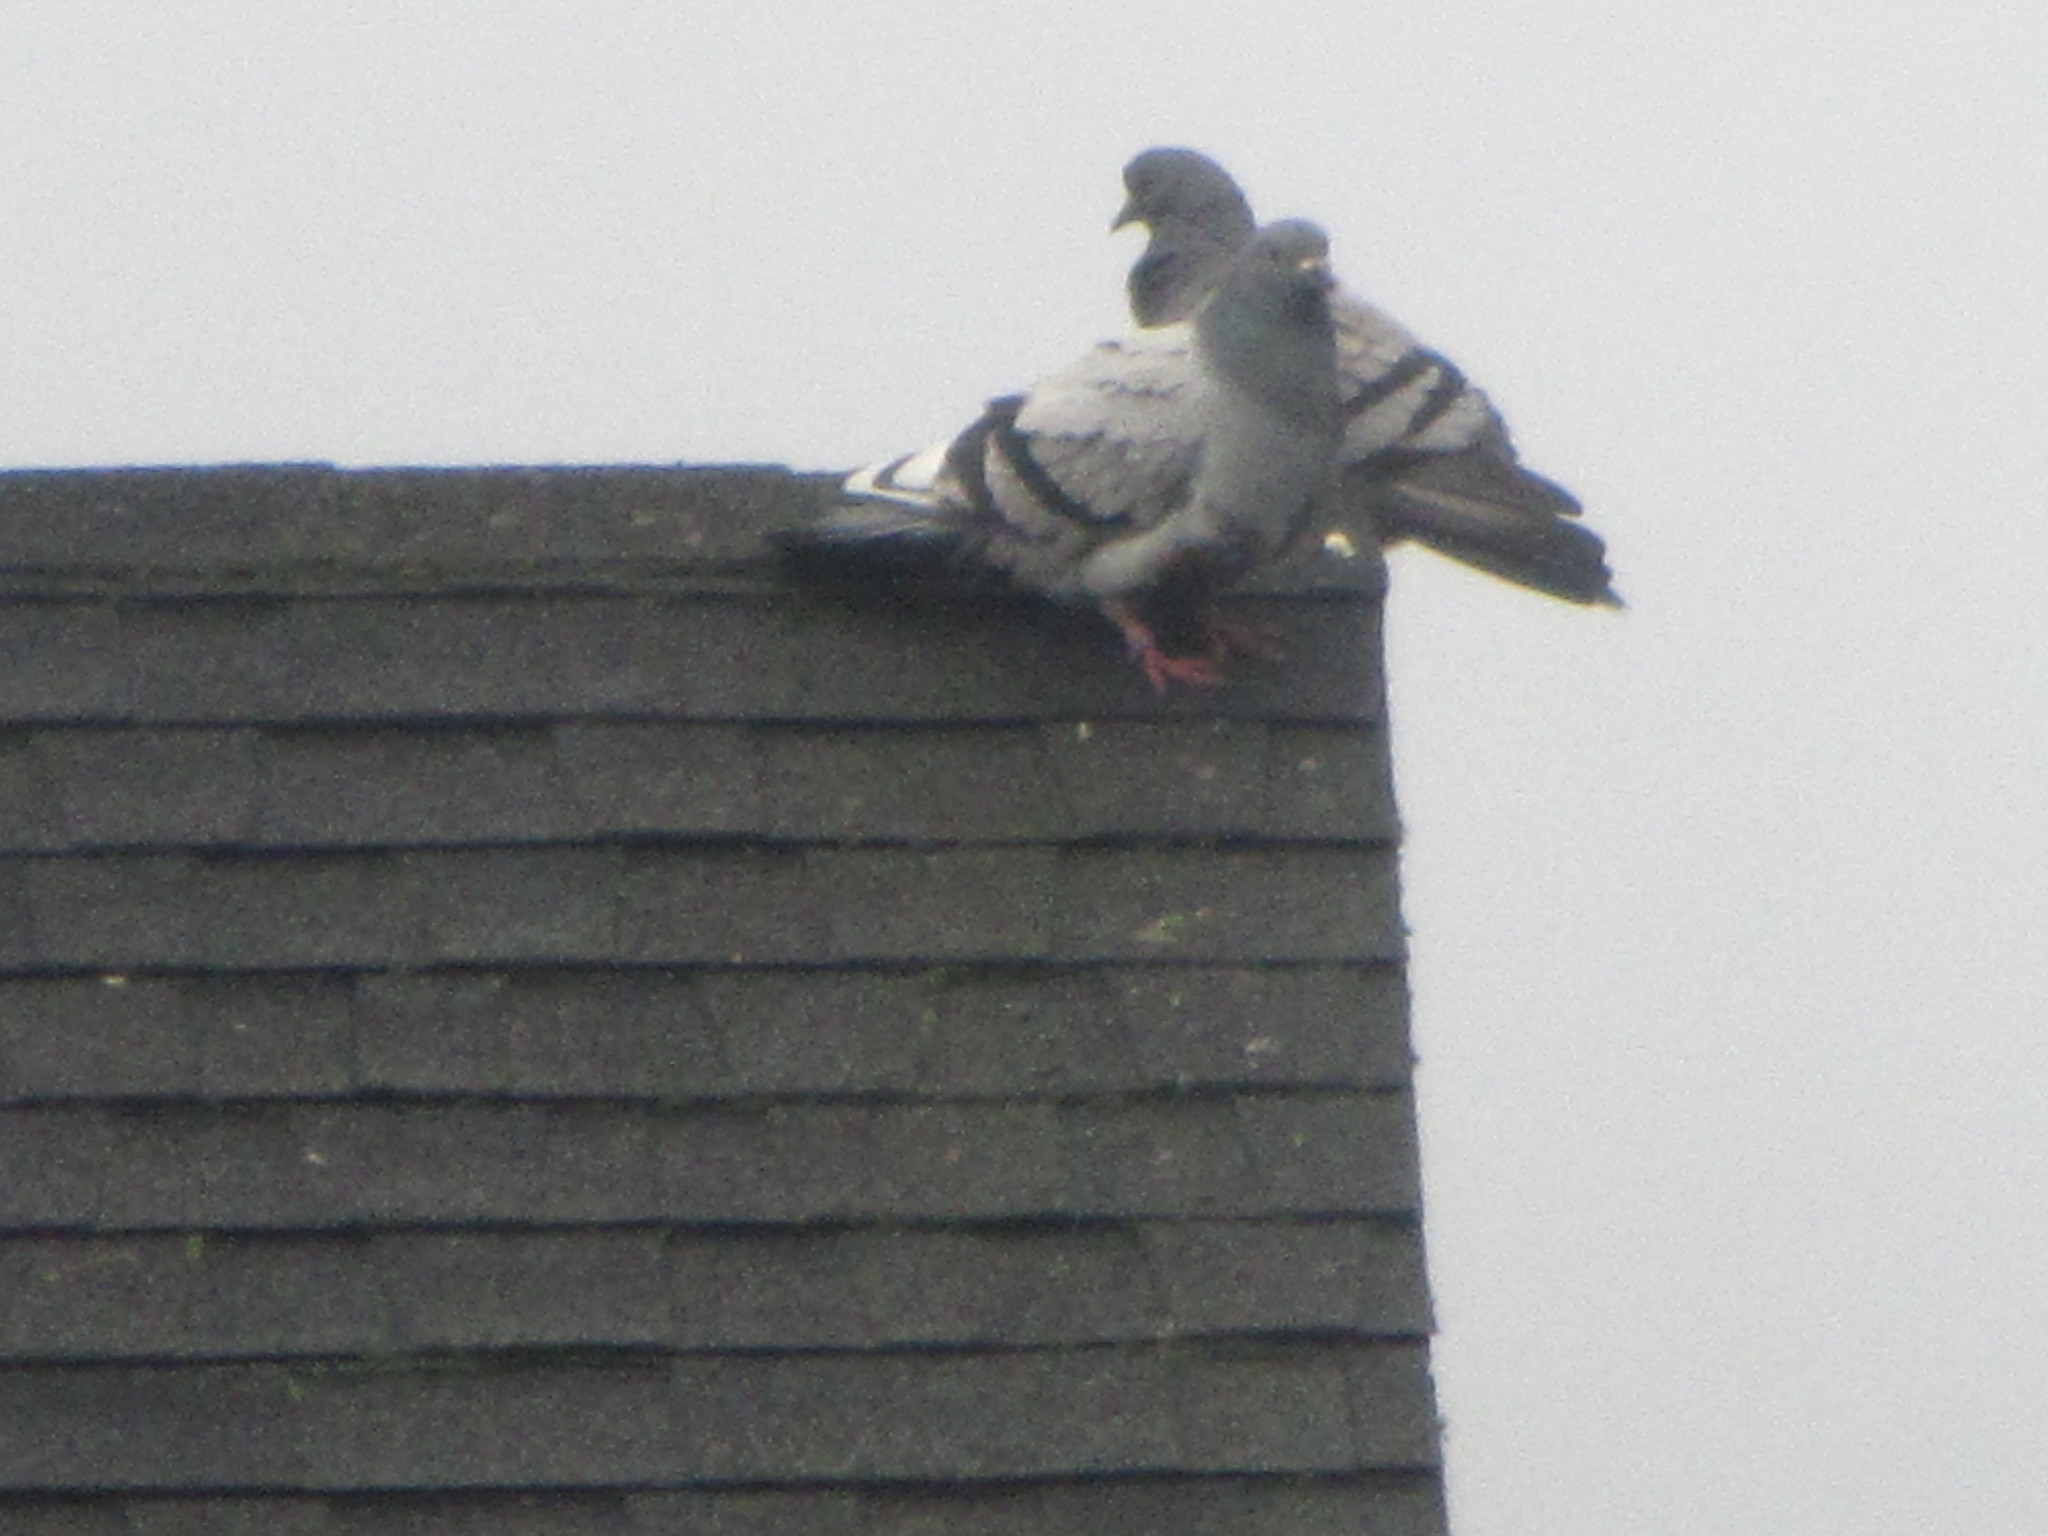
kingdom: Animalia
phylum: Chordata
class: Aves
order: Columbiformes
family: Columbidae
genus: Columba
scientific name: Columba livia
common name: Rock pigeon
